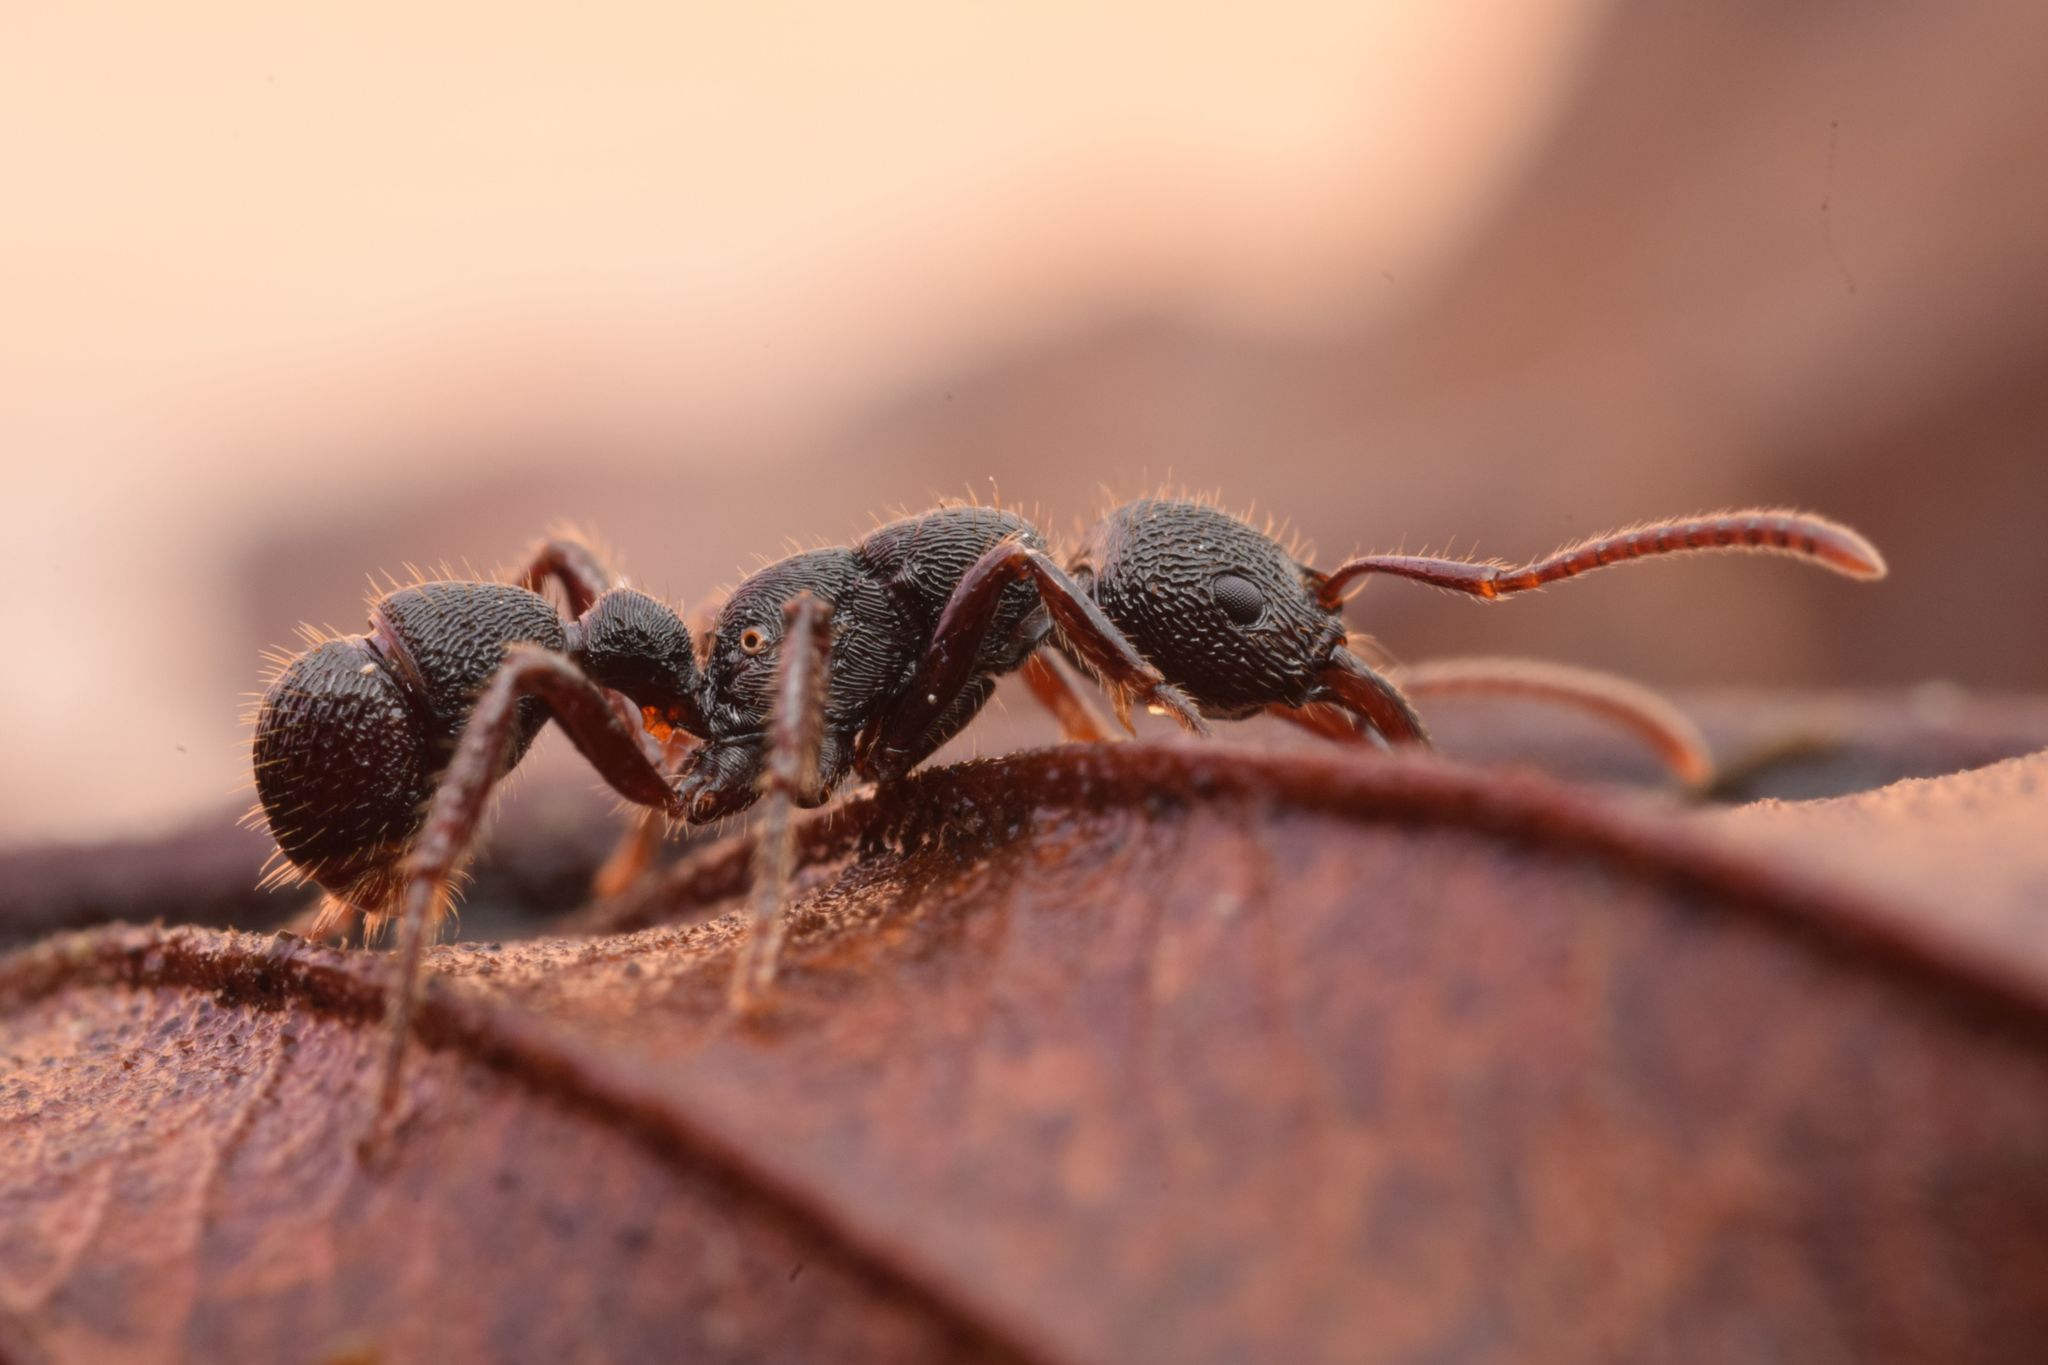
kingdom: Animalia
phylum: Arthropoda
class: Insecta
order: Hymenoptera
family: Formicidae
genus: Poneracantha
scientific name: Poneracantha
